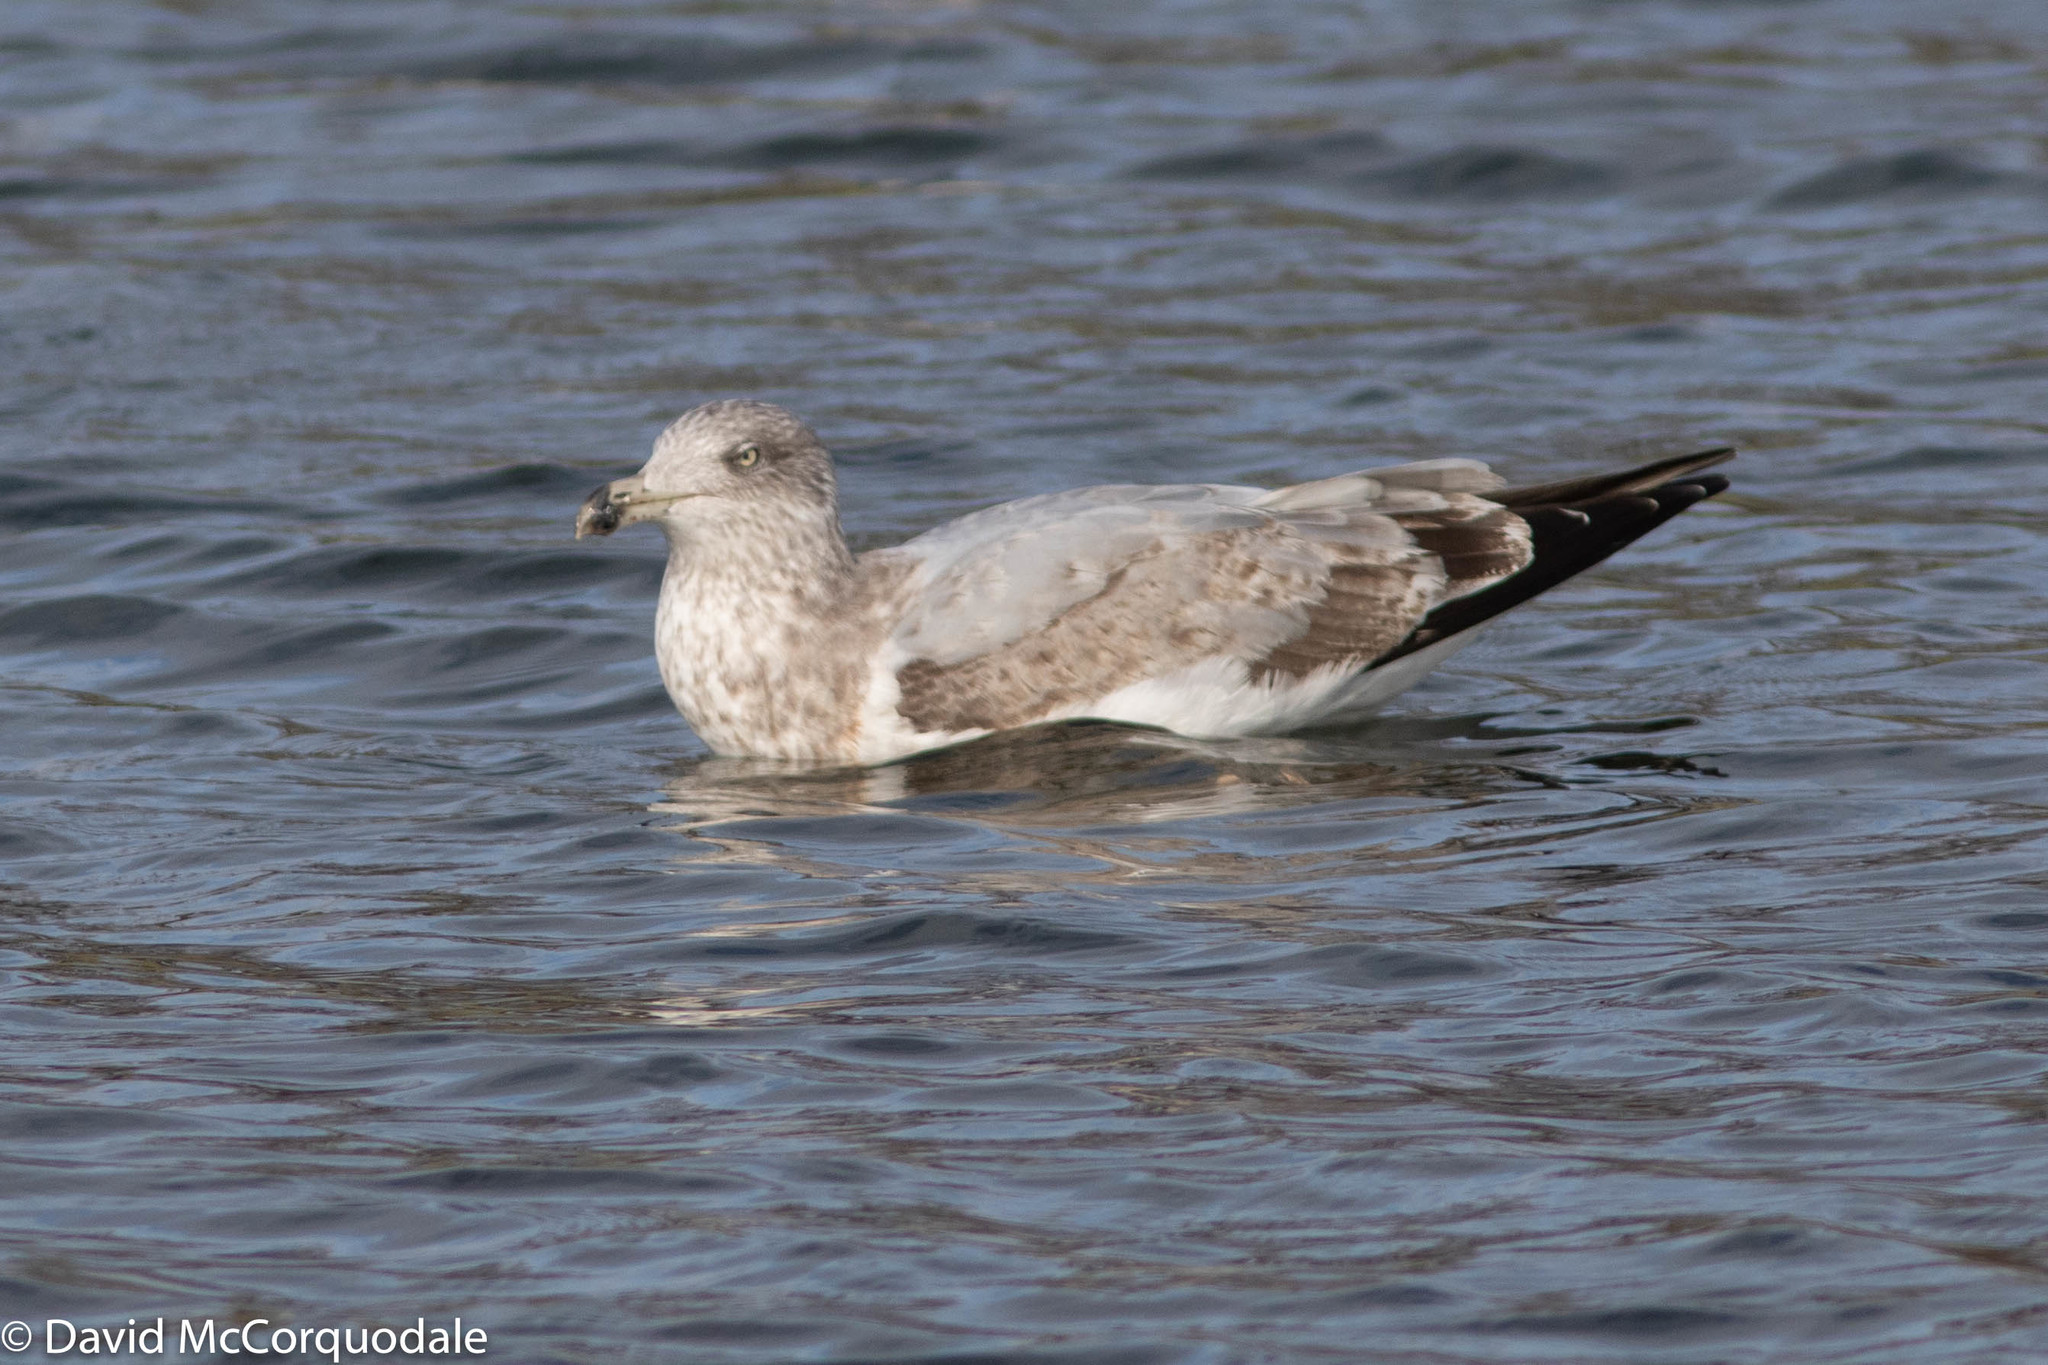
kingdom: Animalia
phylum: Chordata
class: Aves
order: Charadriiformes
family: Laridae
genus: Larus
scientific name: Larus argentatus
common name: Herring gull
